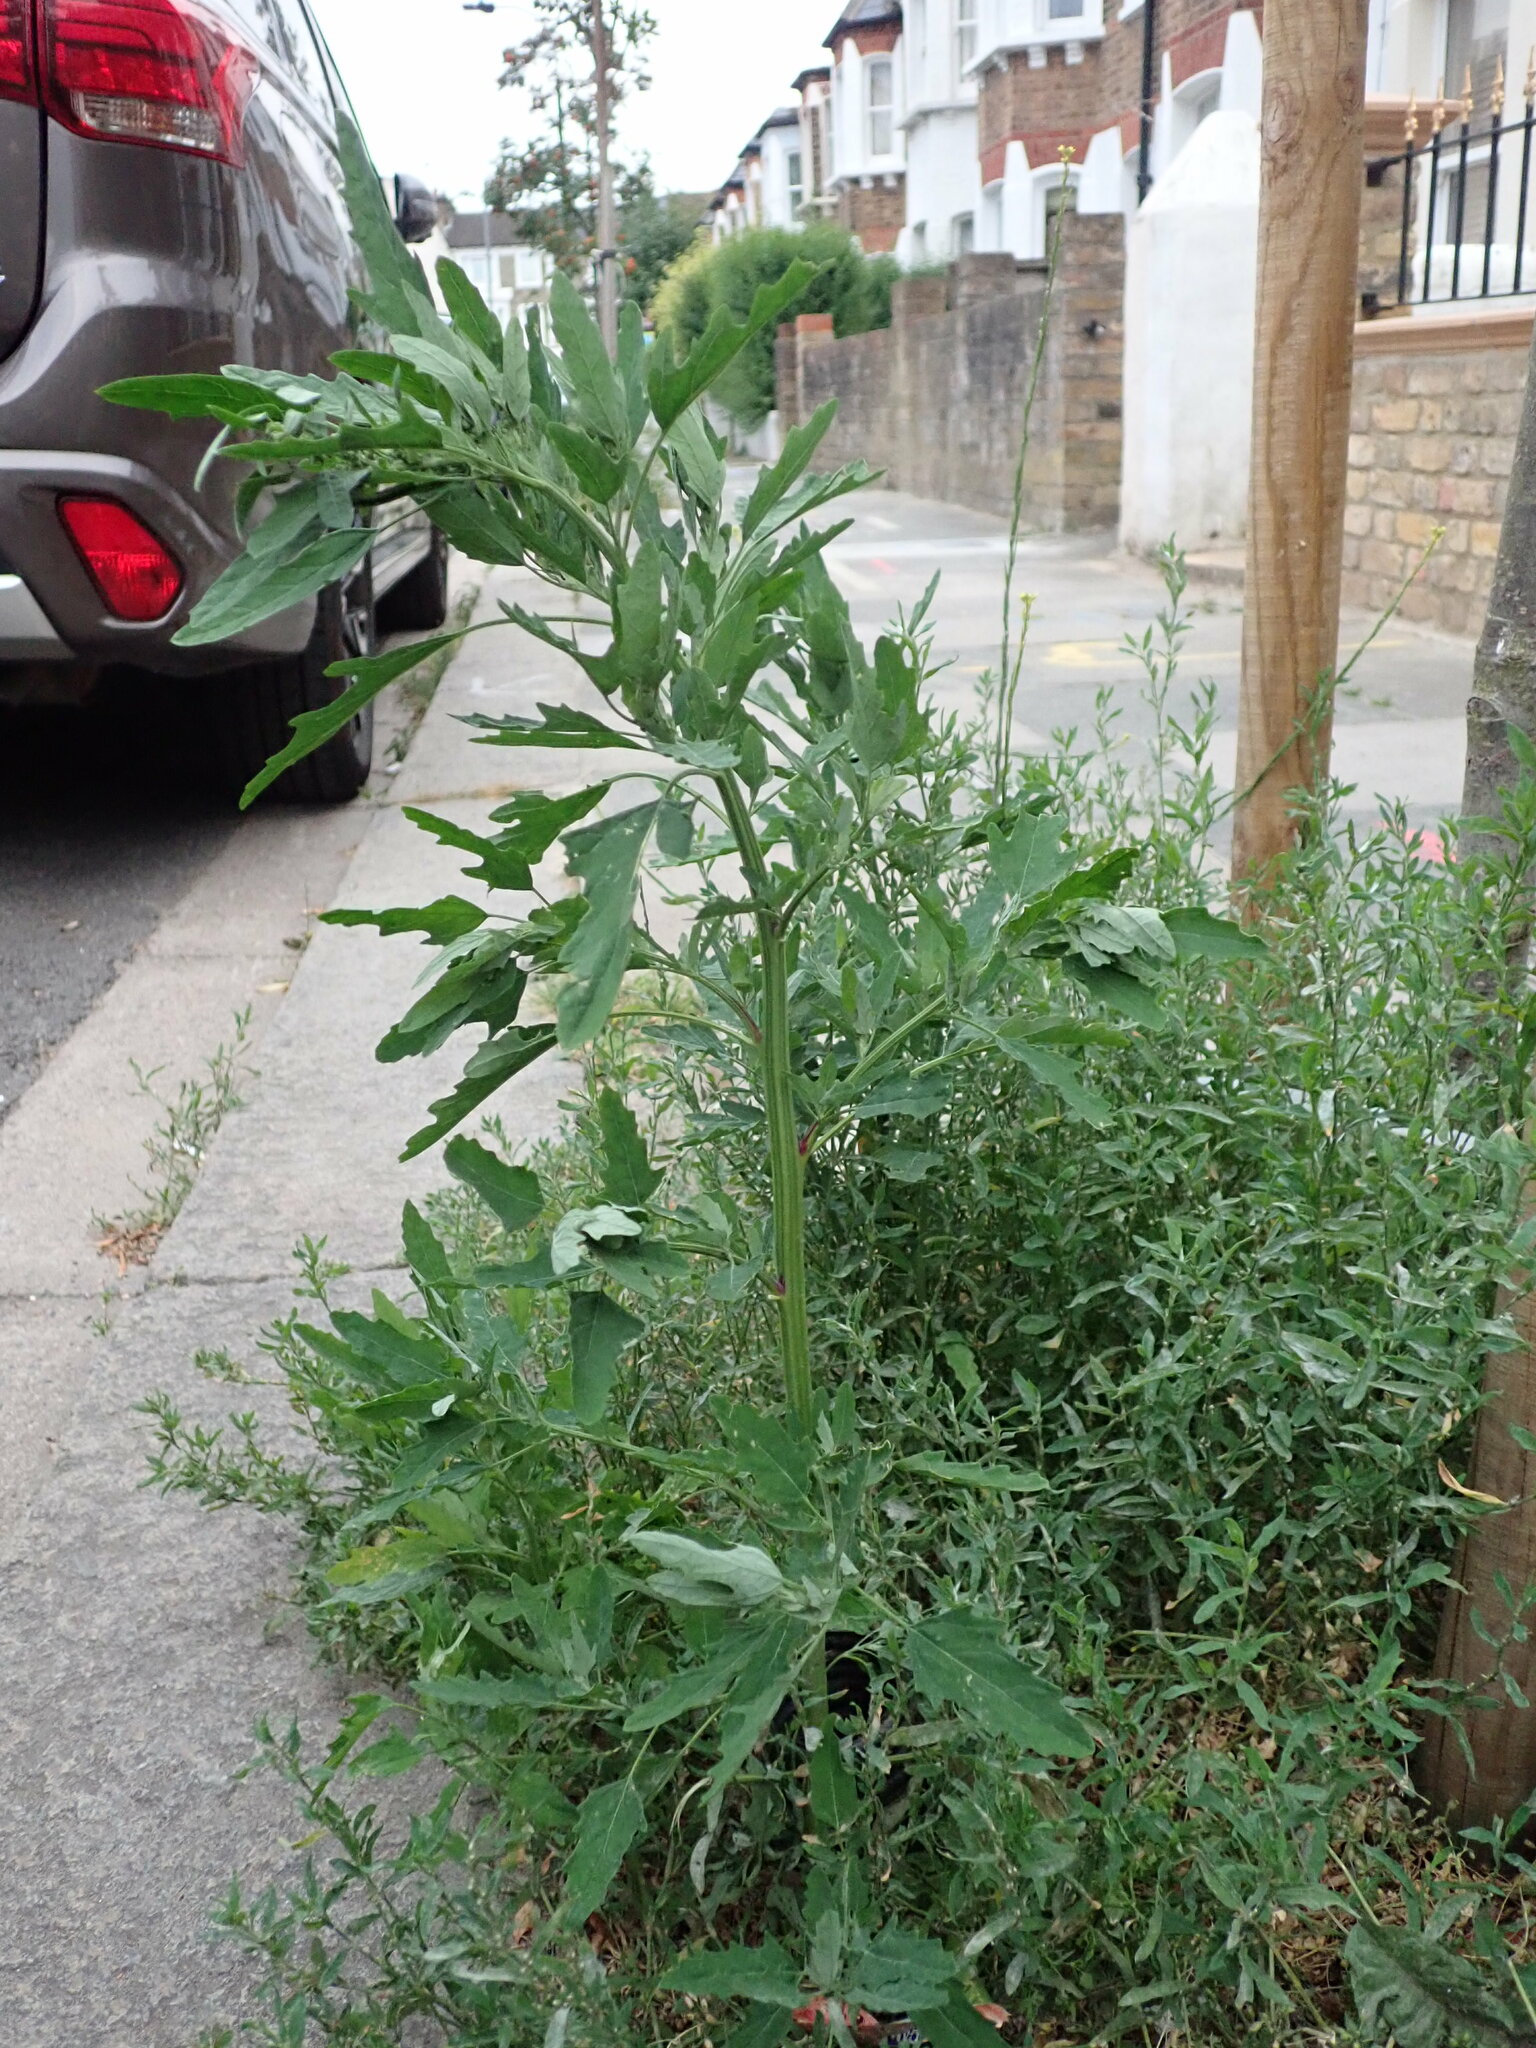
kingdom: Plantae
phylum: Tracheophyta
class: Magnoliopsida
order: Caryophyllales
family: Amaranthaceae
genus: Chenopodium
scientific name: Chenopodium ficifolium
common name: Fig-leaved goosefoot
